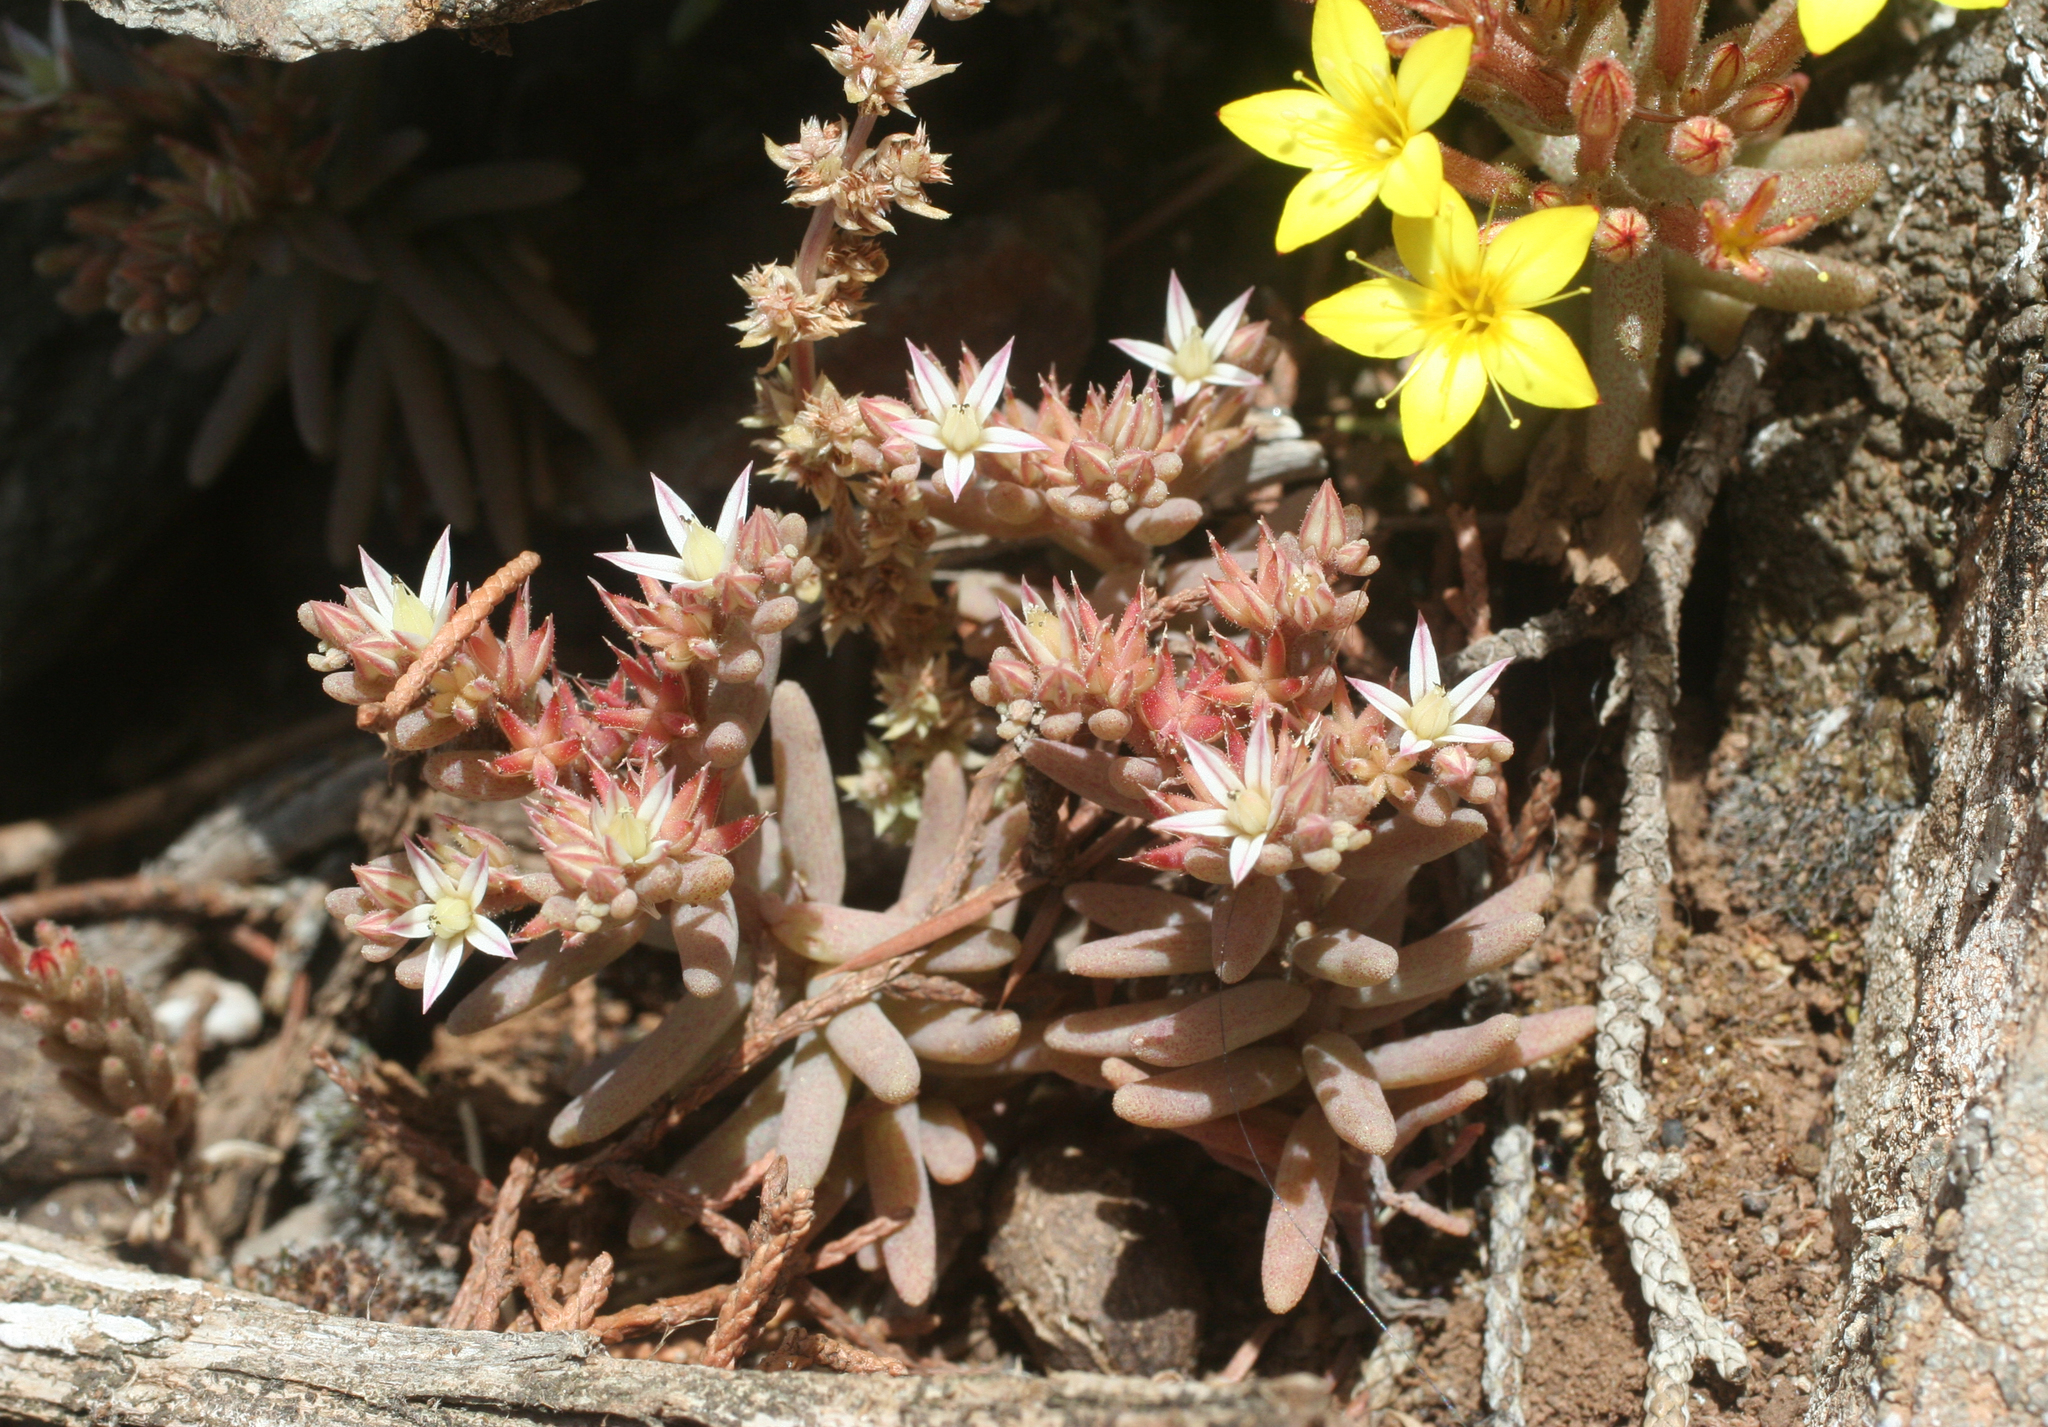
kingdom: Plantae
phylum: Tracheophyta
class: Magnoliopsida
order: Saxifragales
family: Crassulaceae
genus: Sedum
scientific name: Sedum rubens
